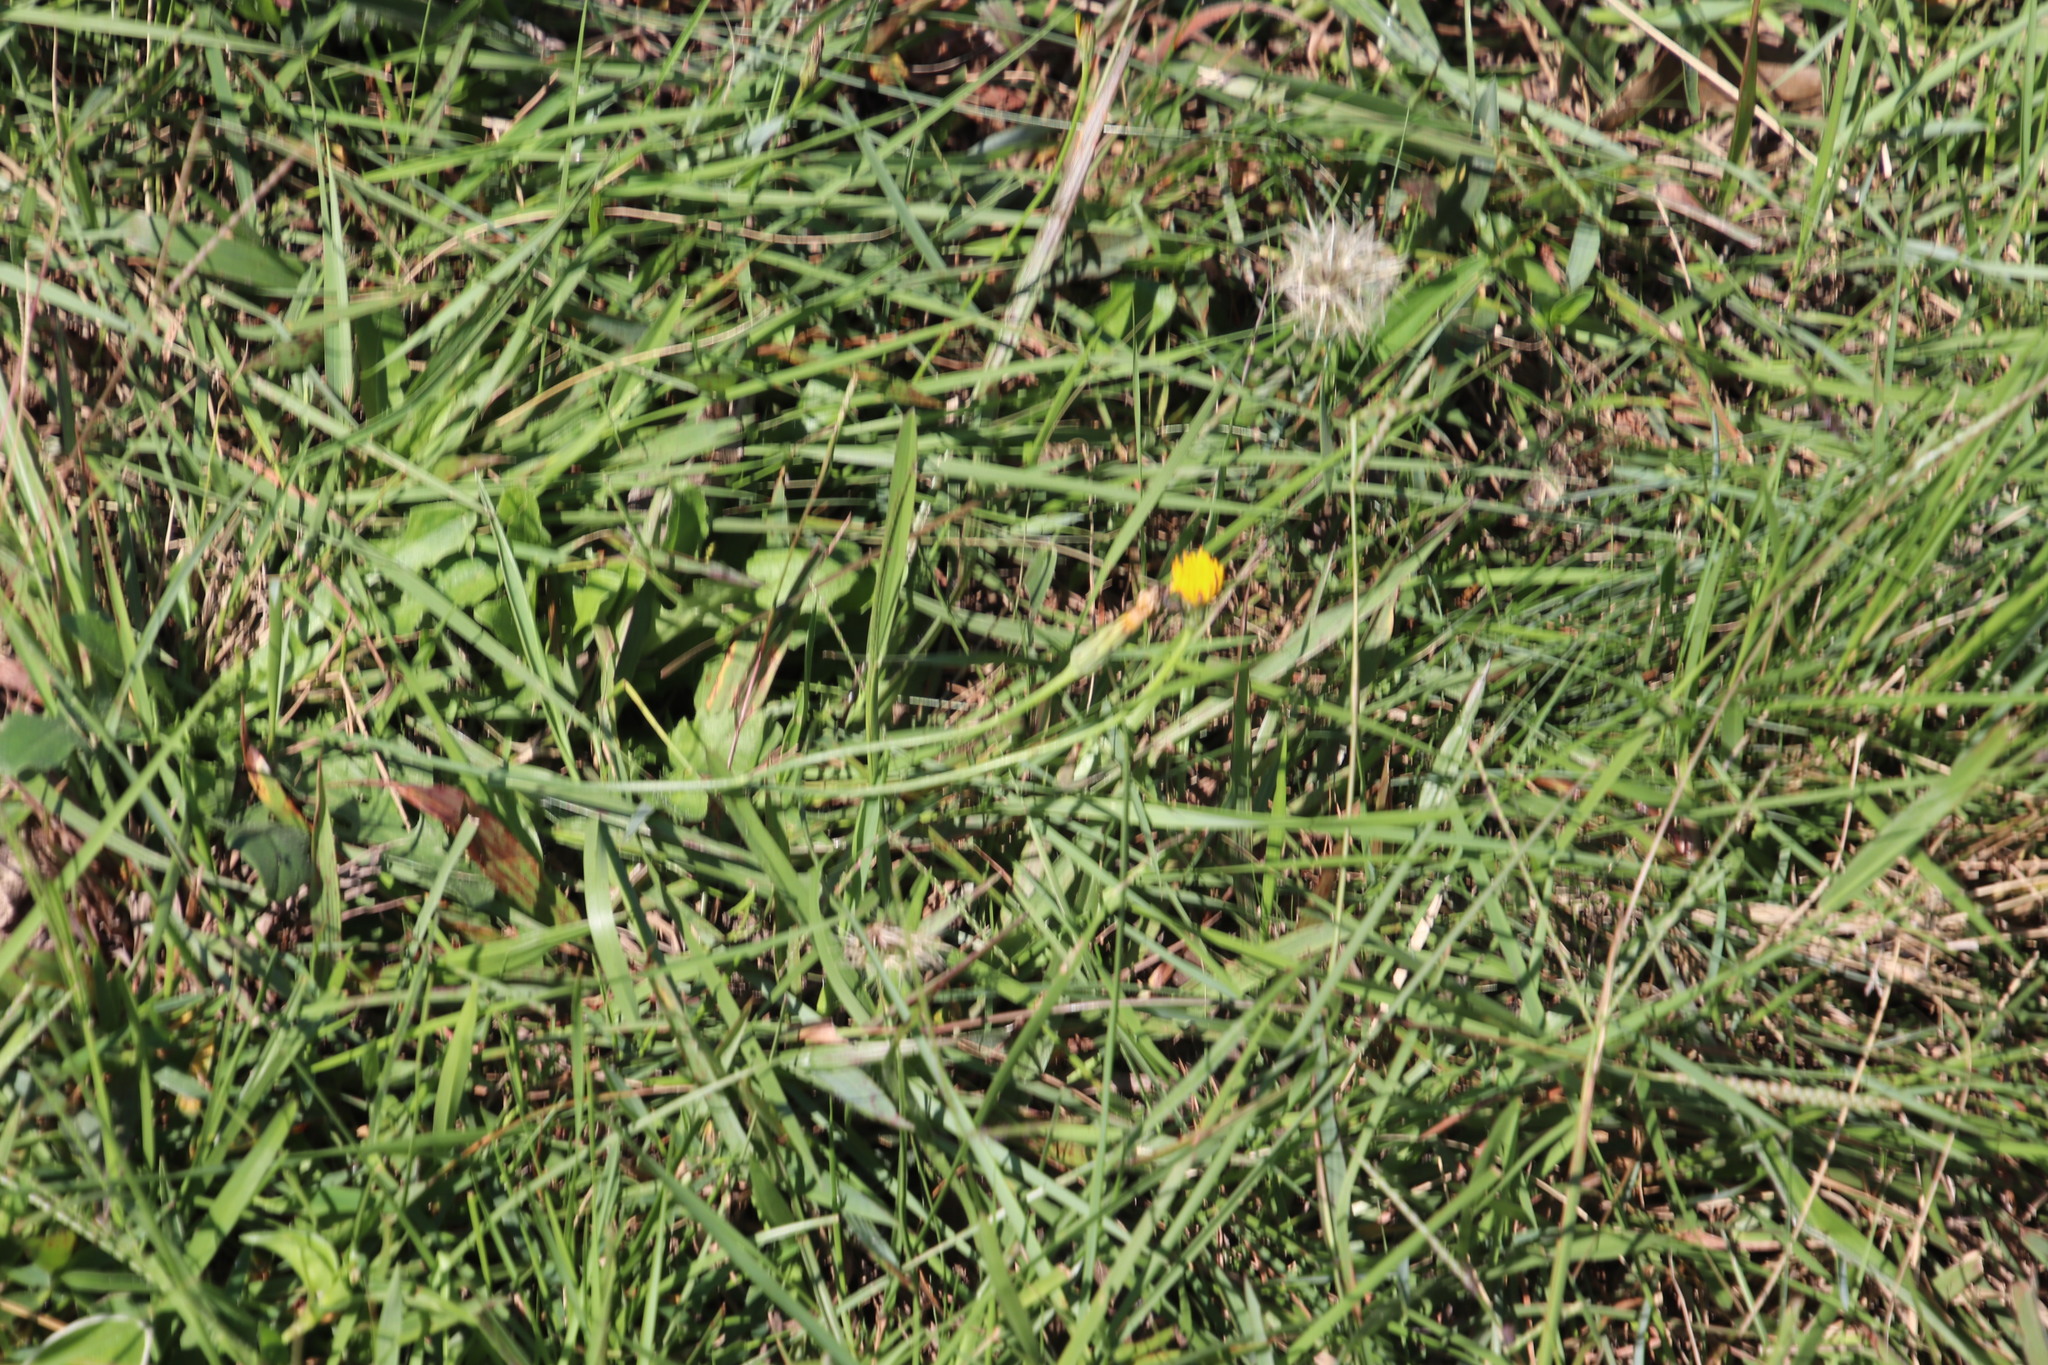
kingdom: Plantae
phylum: Tracheophyta
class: Magnoliopsida
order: Asterales
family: Asteraceae
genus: Hypochaeris
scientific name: Hypochaeris radicata
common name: Flatweed
